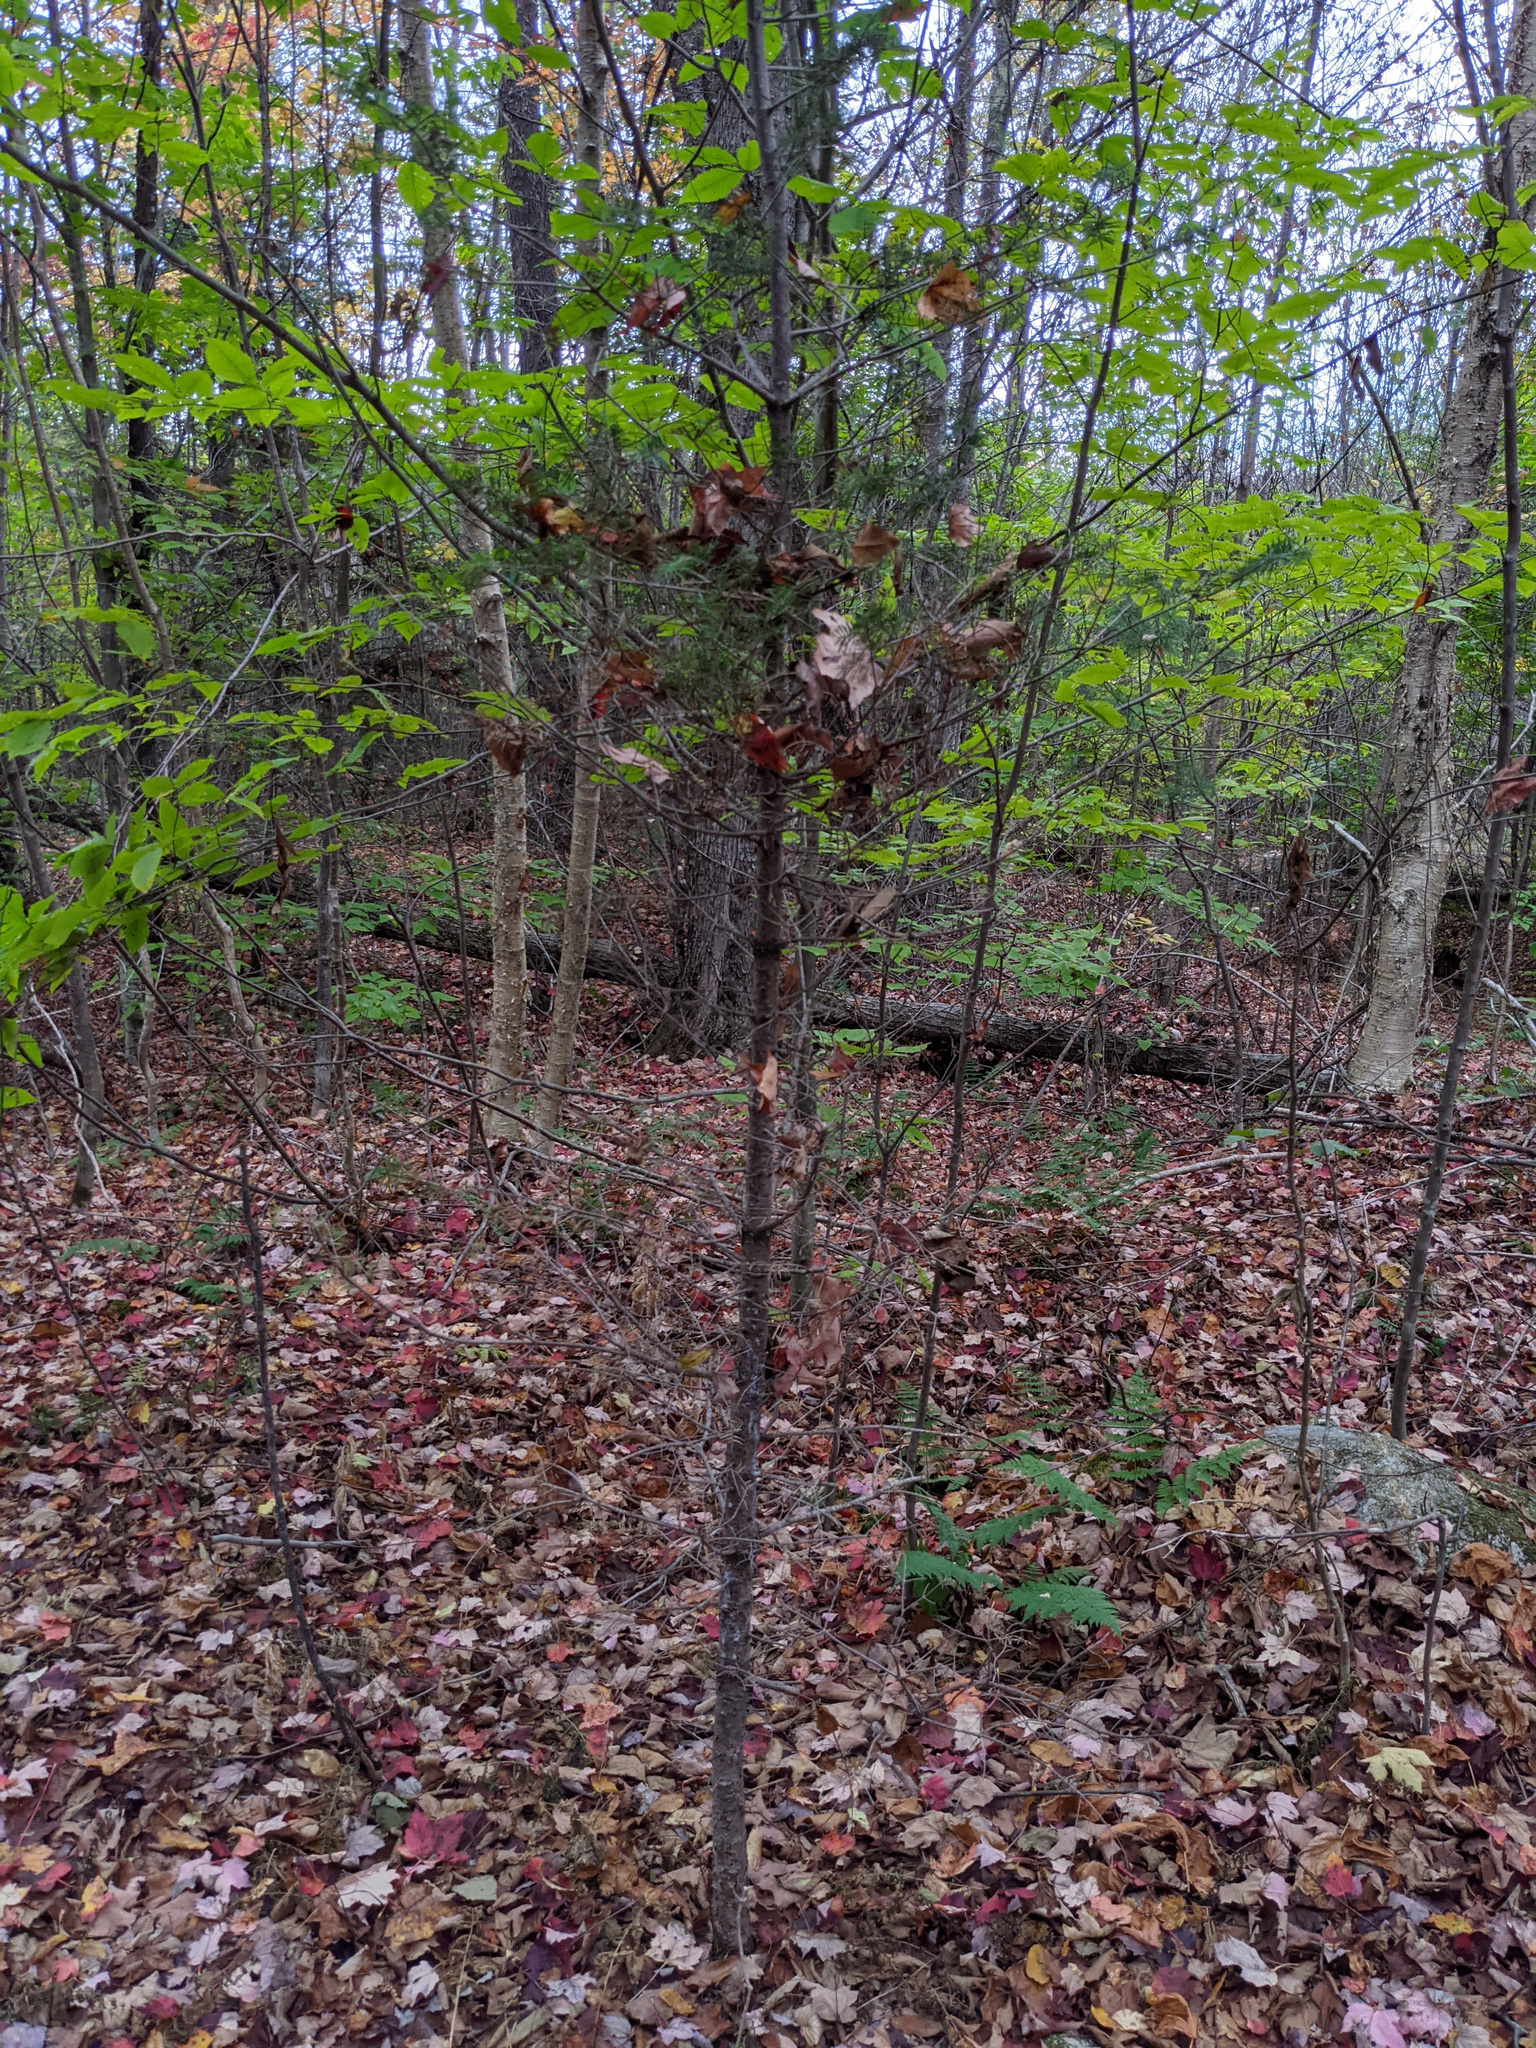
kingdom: Plantae
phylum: Tracheophyta
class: Pinopsida
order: Pinales
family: Pinaceae
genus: Abies
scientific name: Abies balsamea
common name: Balsam fir
